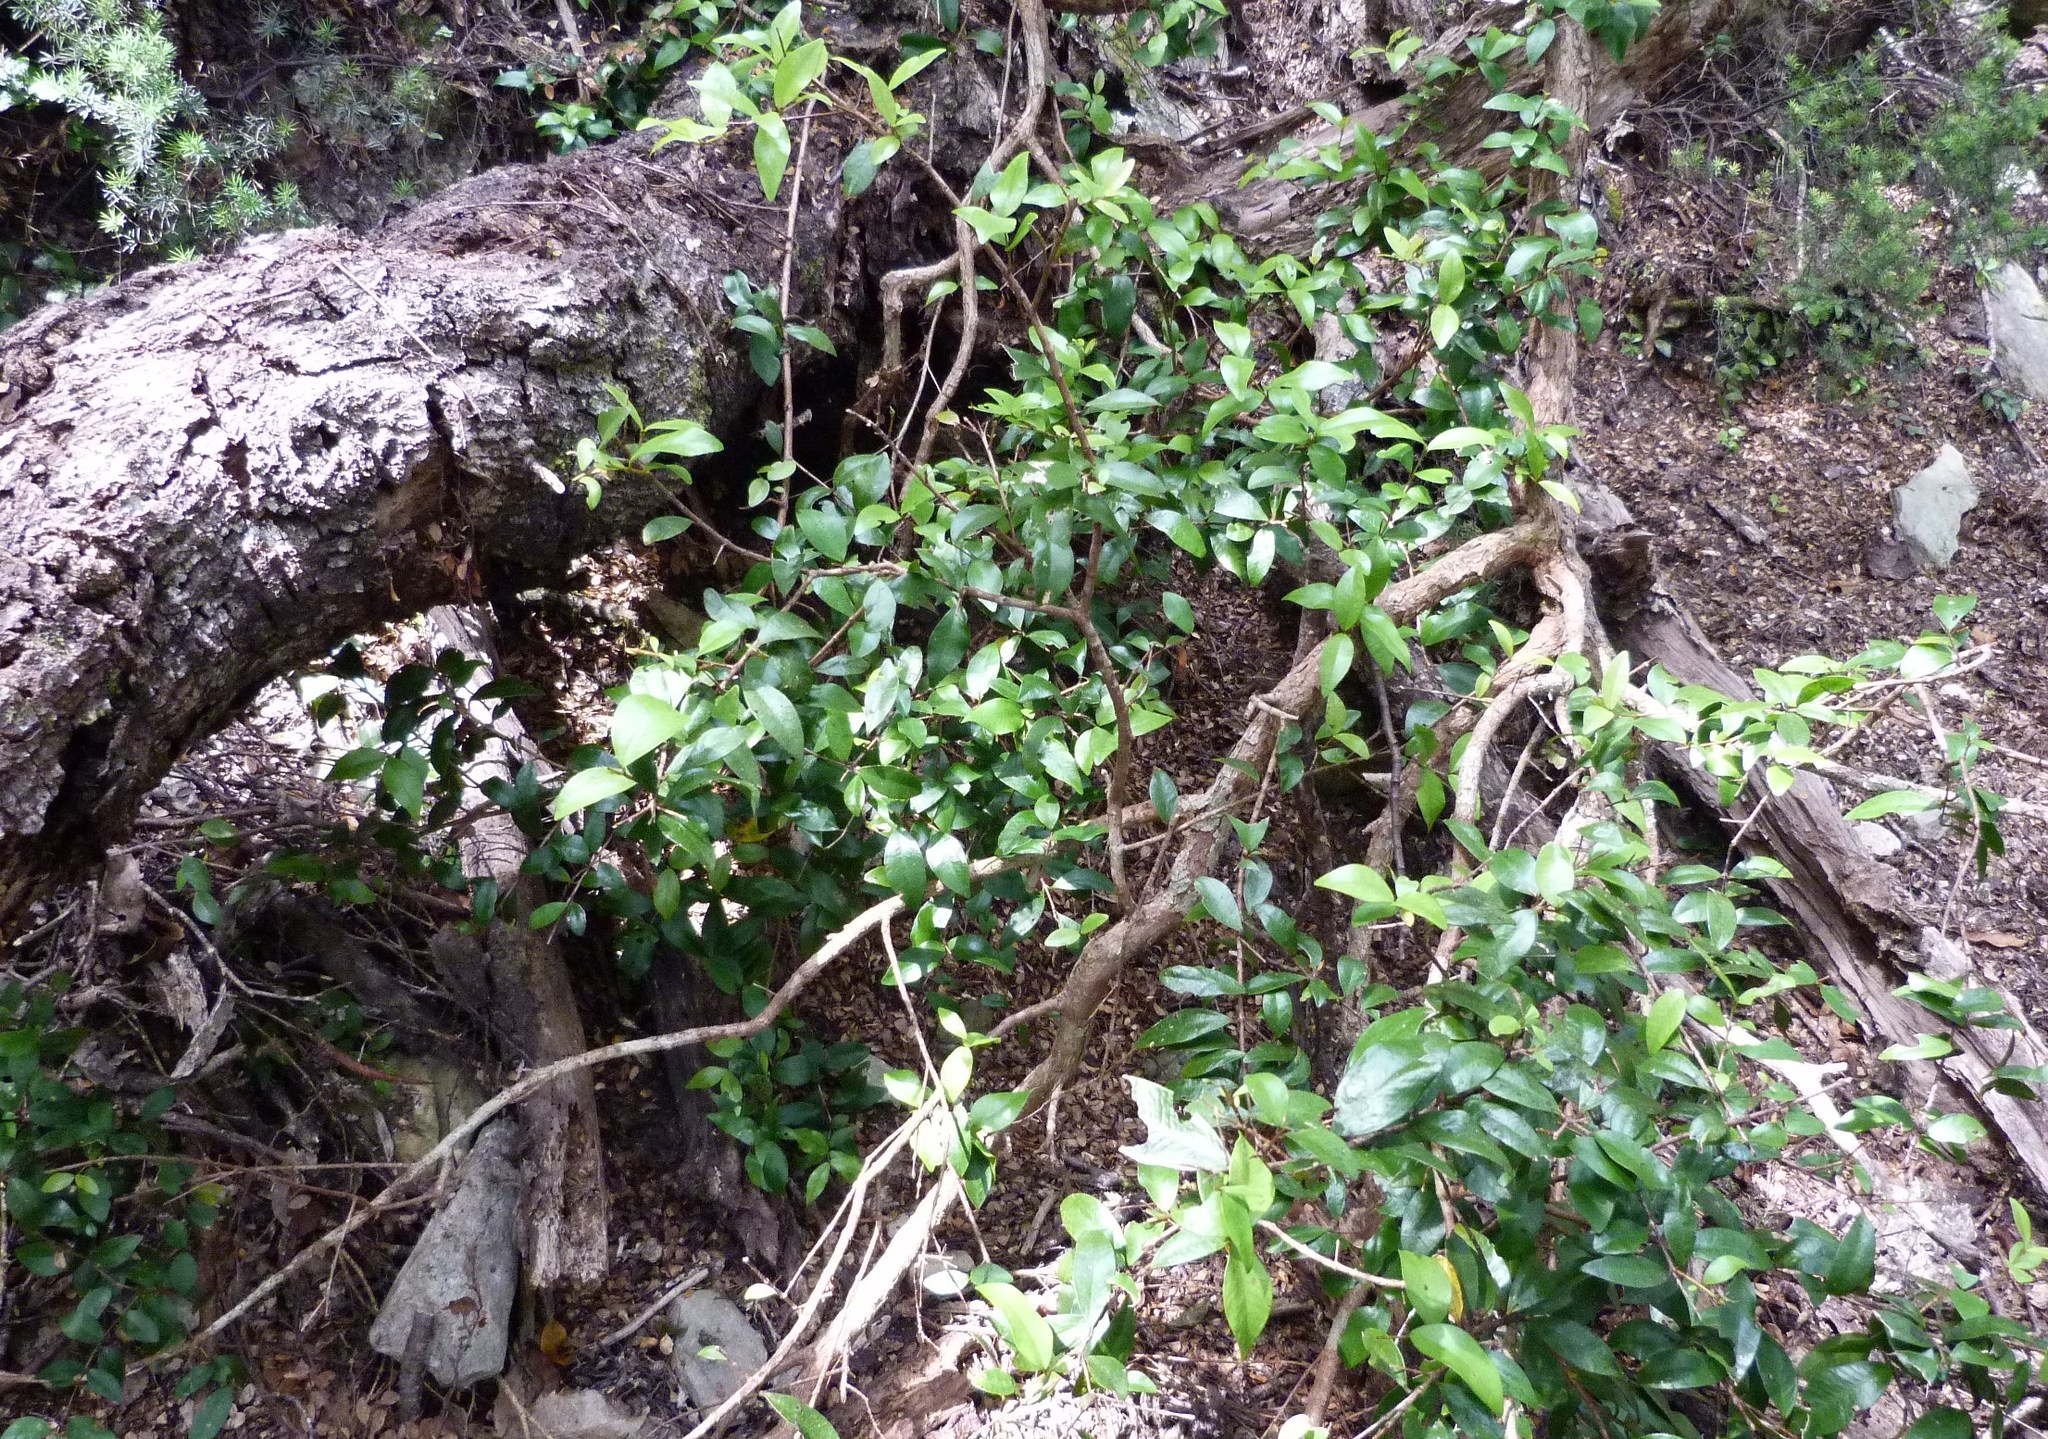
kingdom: Plantae
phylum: Tracheophyta
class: Magnoliopsida
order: Myrtales
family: Myrtaceae
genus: Metrosideros
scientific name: Metrosideros fulgens
